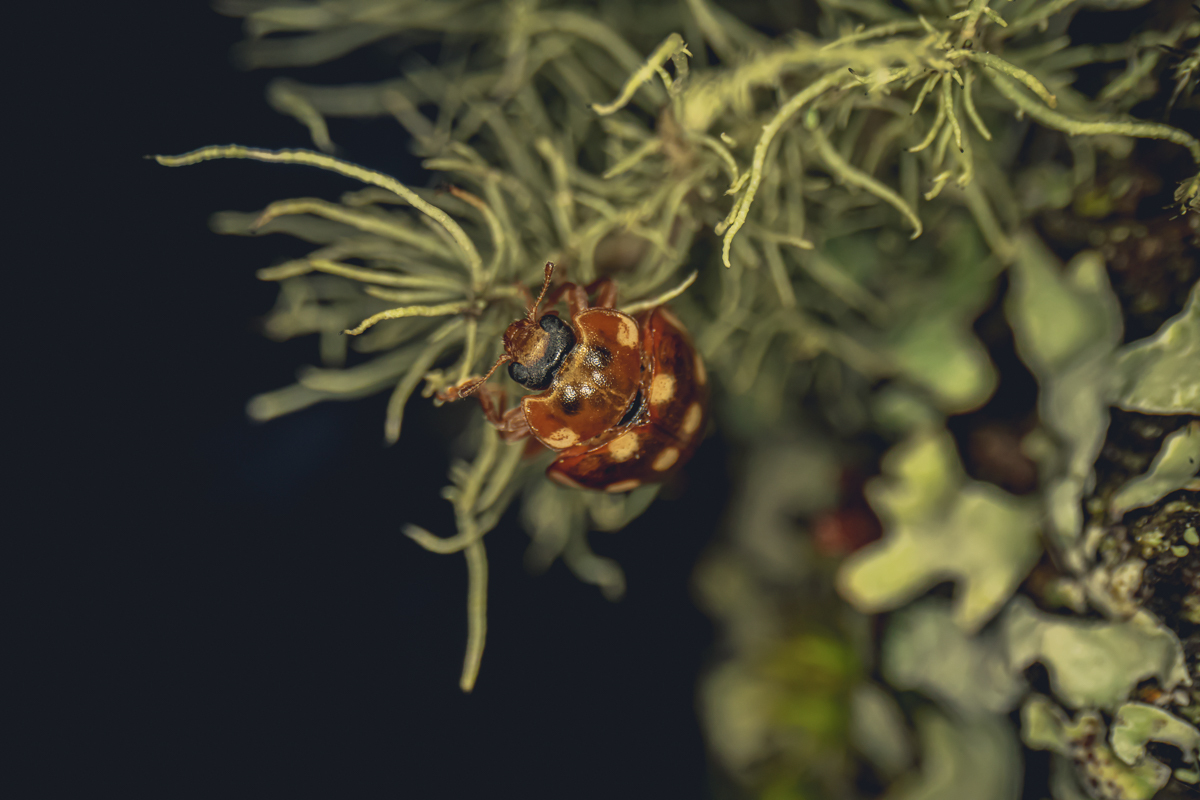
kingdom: Animalia
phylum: Arthropoda
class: Insecta
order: Coleoptera
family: Coccinellidae
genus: Calvia
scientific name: Calvia quatuordecimguttata
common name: Cream-spot ladybird
